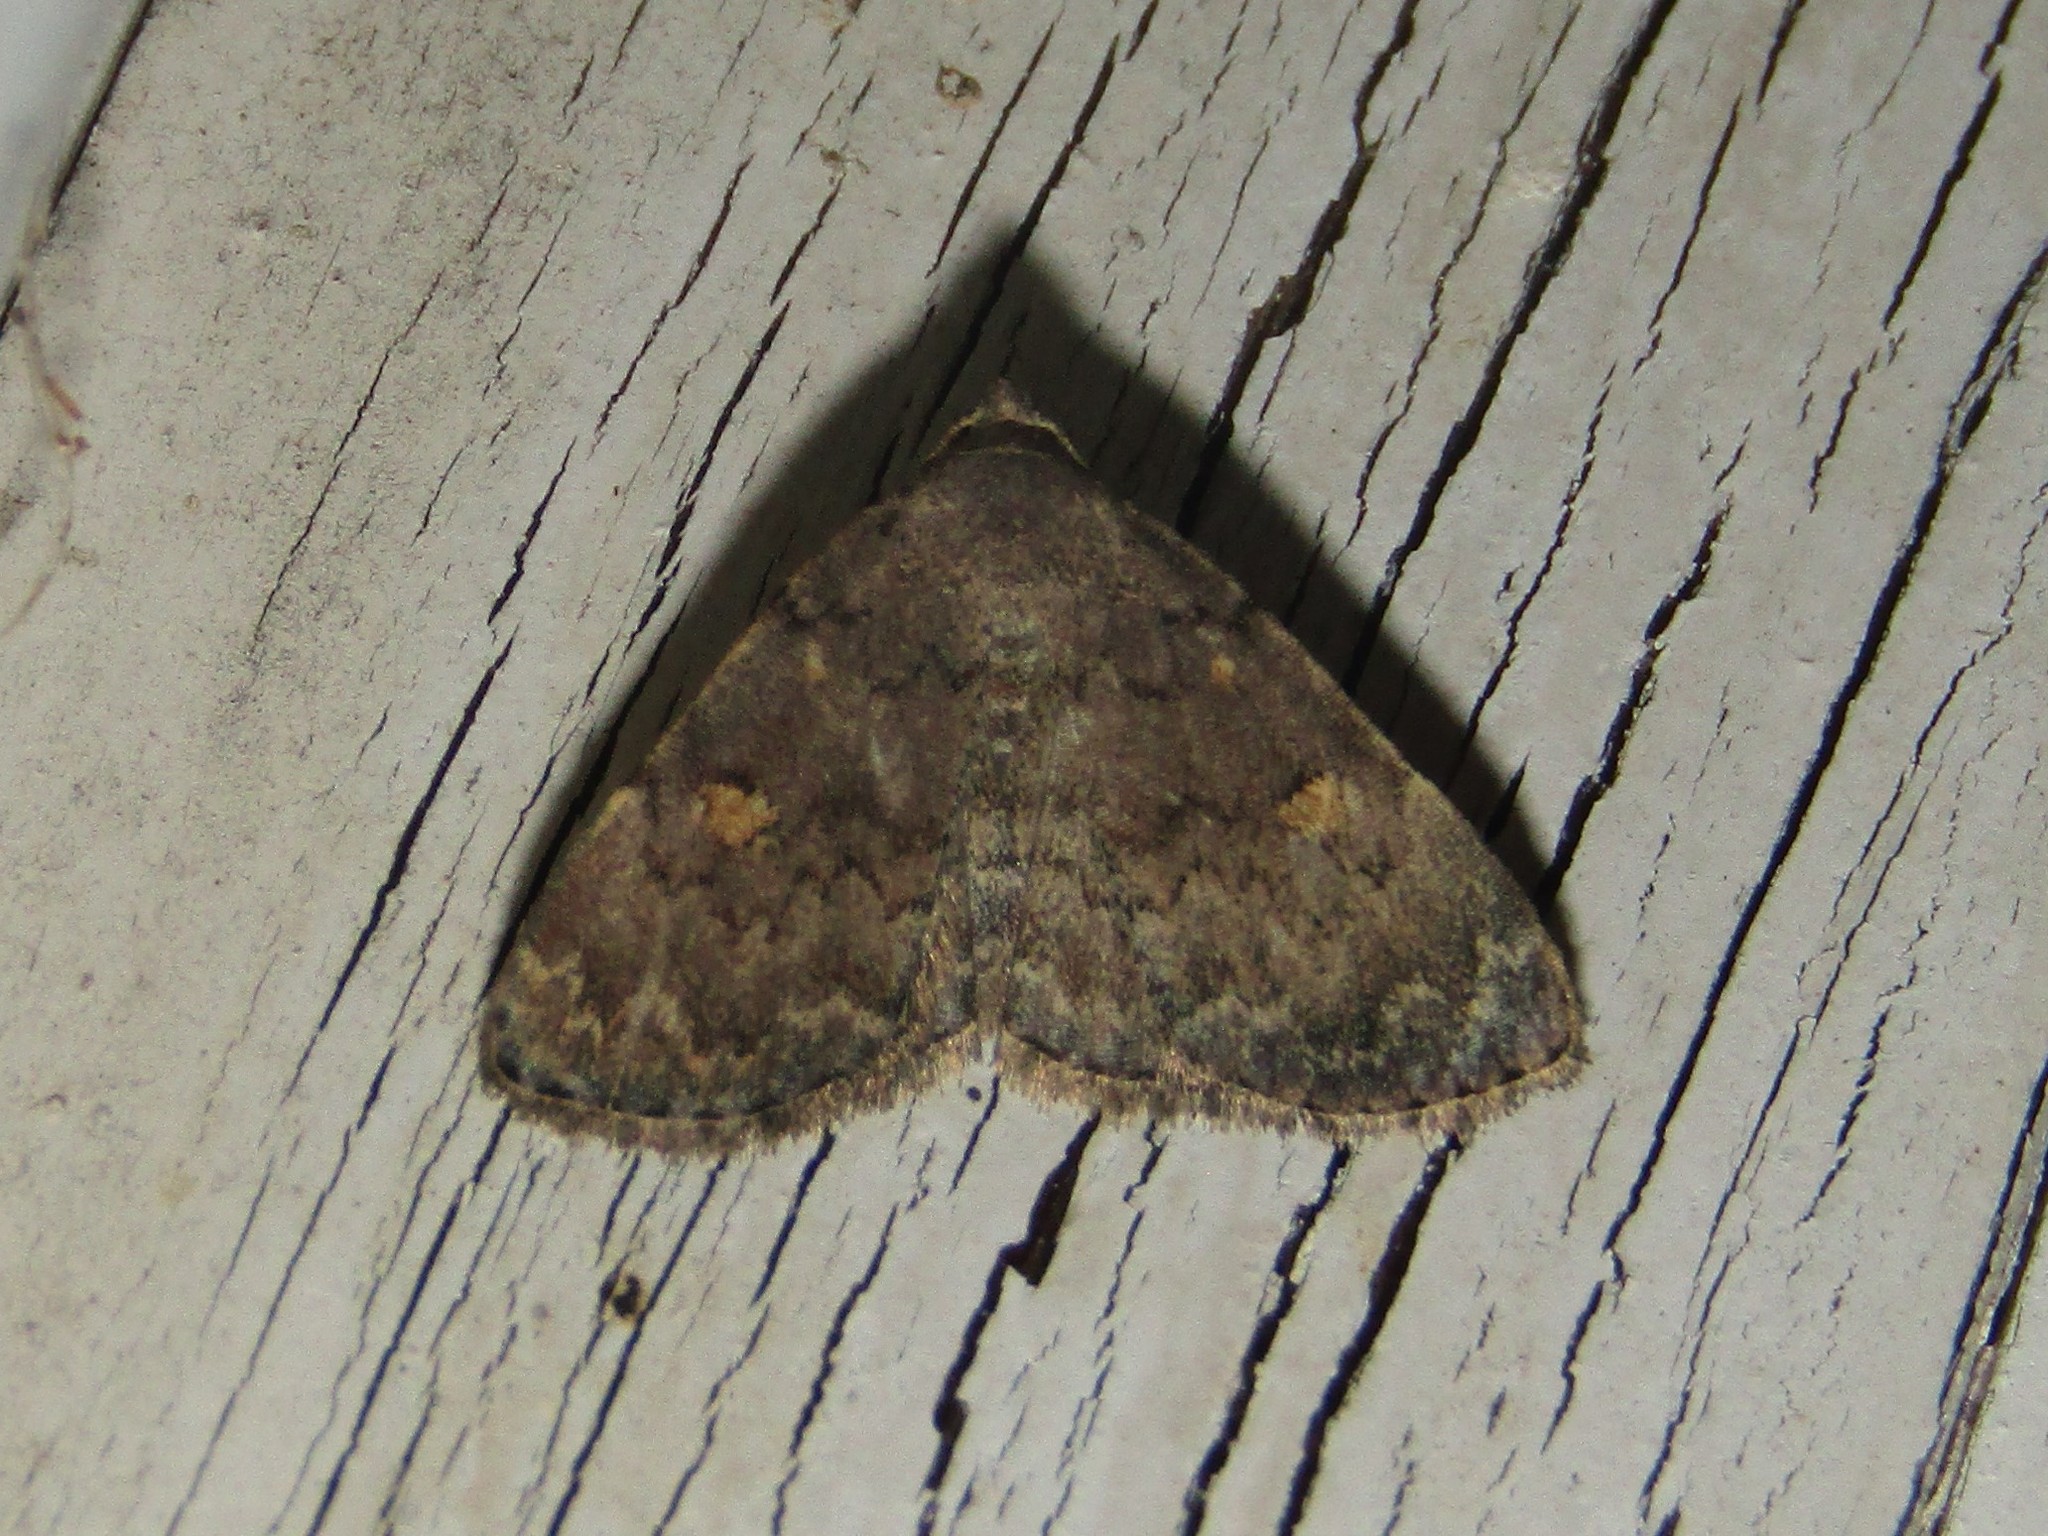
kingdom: Animalia
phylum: Arthropoda
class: Insecta
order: Lepidoptera
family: Erebidae
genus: Idia
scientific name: Idia aemula
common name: Common idia moth
